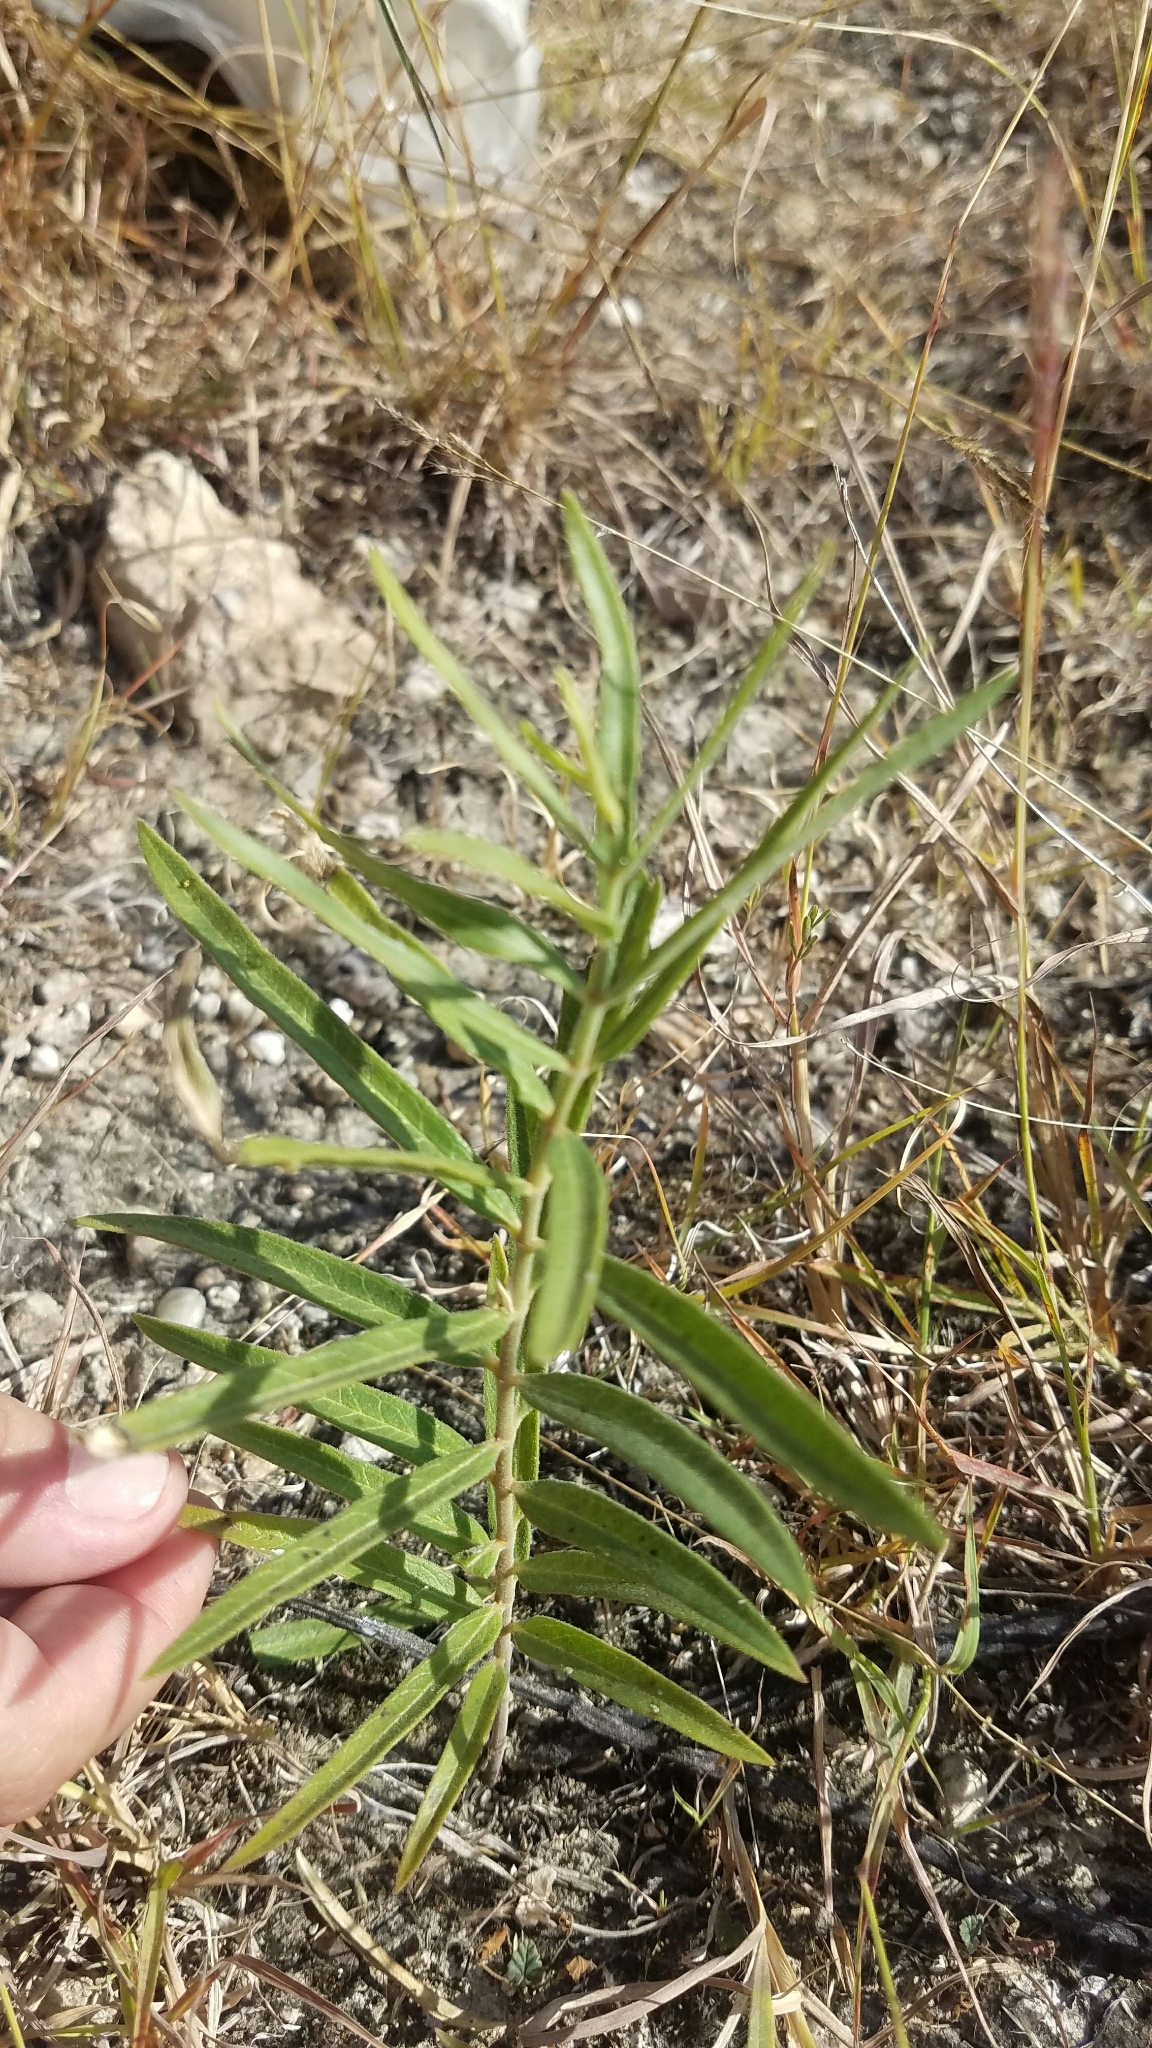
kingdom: Plantae
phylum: Tracheophyta
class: Magnoliopsida
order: Gentianales
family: Apocynaceae
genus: Asclepias
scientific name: Asclepias viridiflora
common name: Green comet milkweed
